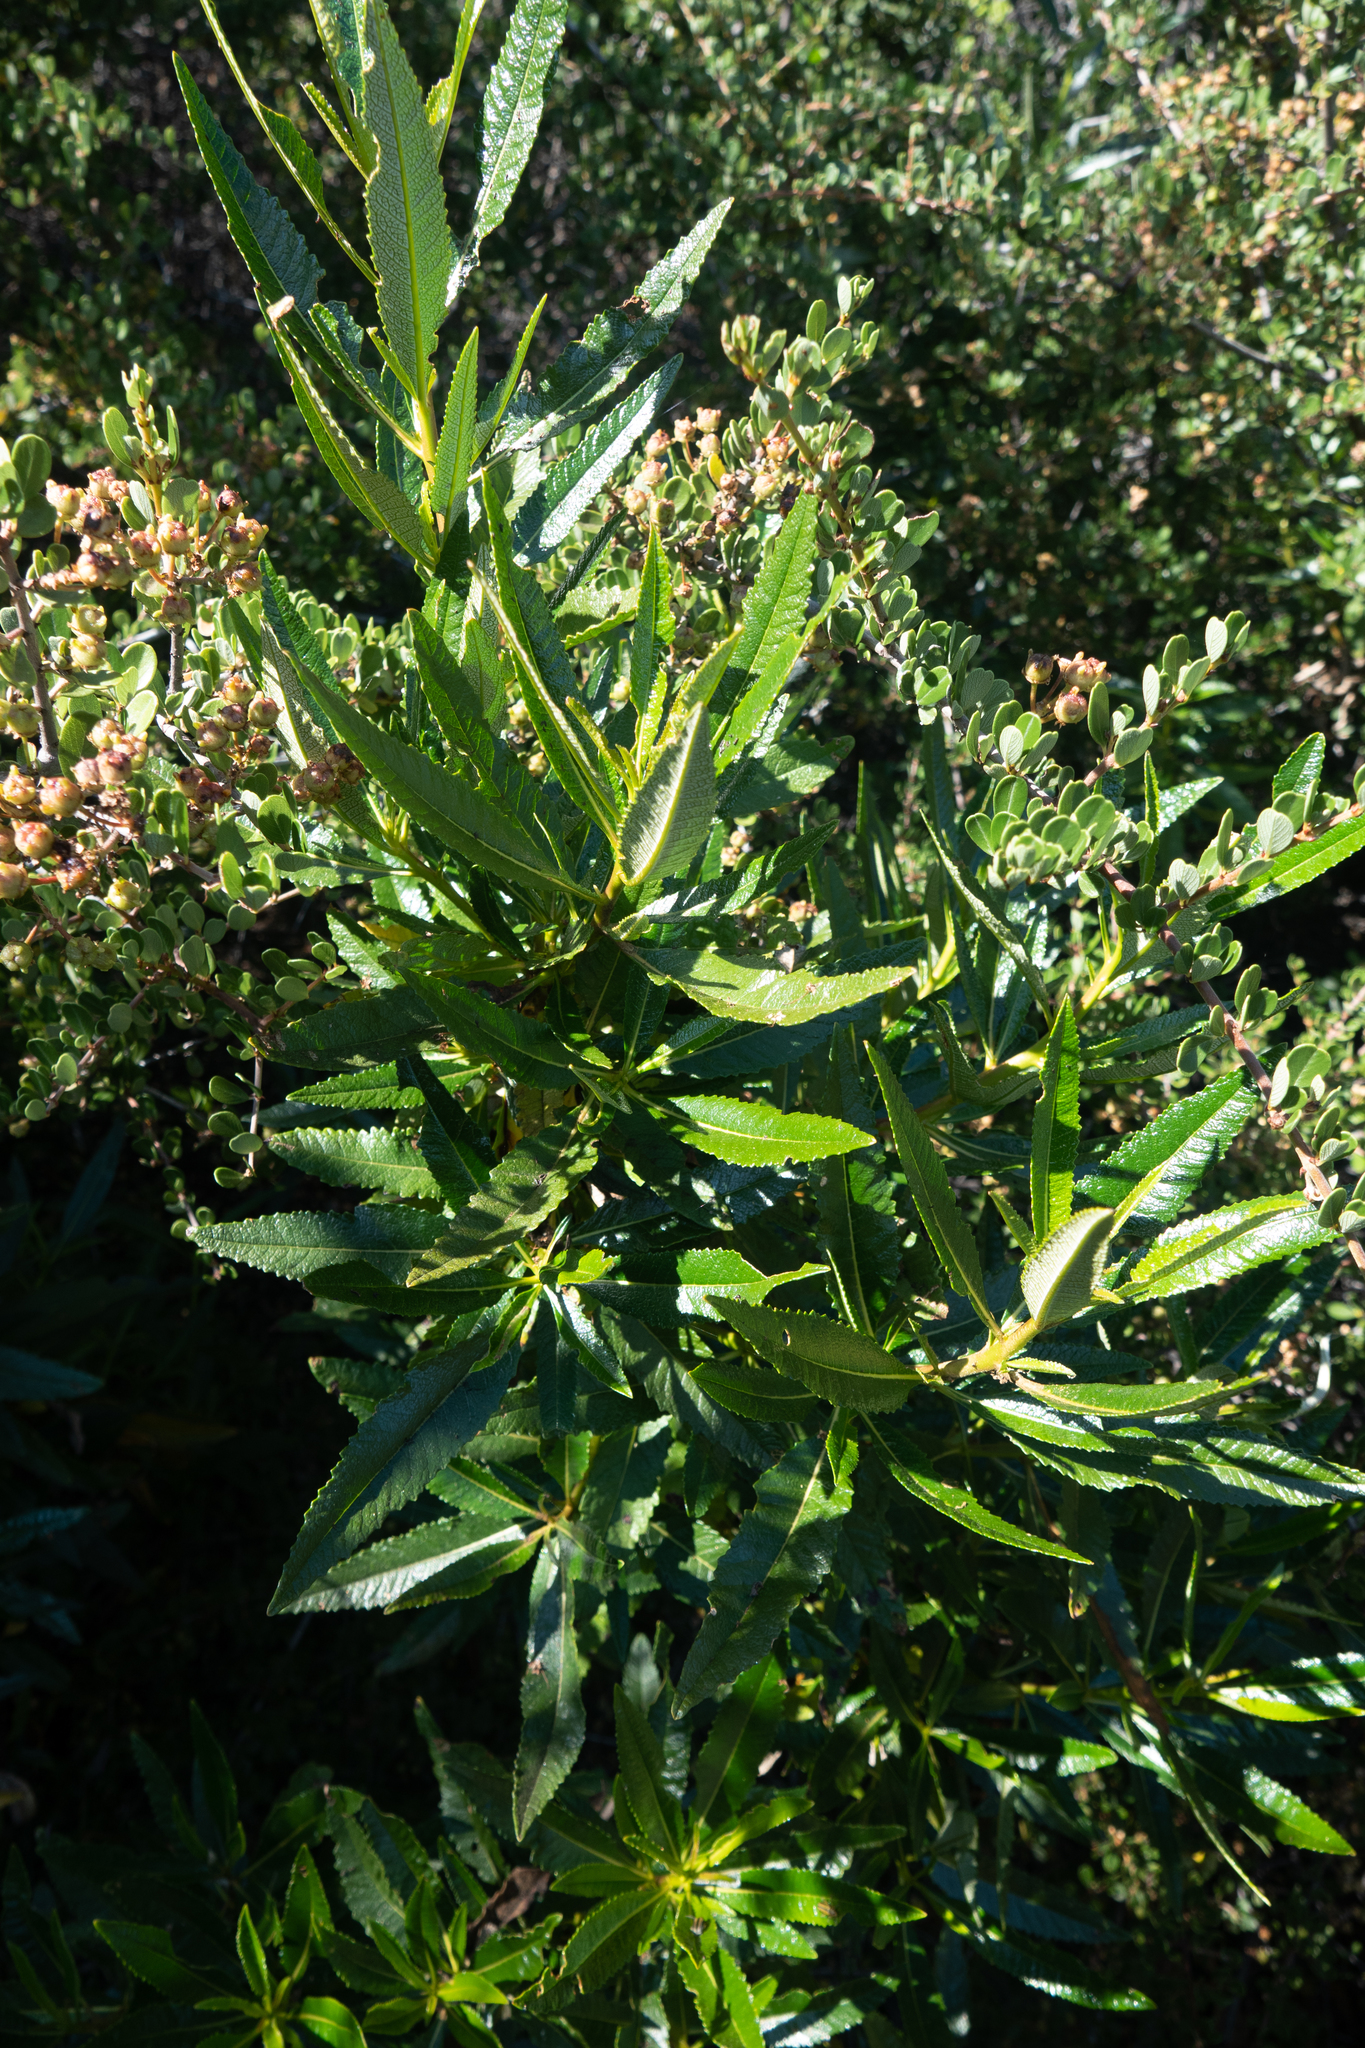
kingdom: Plantae
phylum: Tracheophyta
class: Magnoliopsida
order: Boraginales
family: Namaceae
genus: Eriodictyon
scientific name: Eriodictyon californicum
